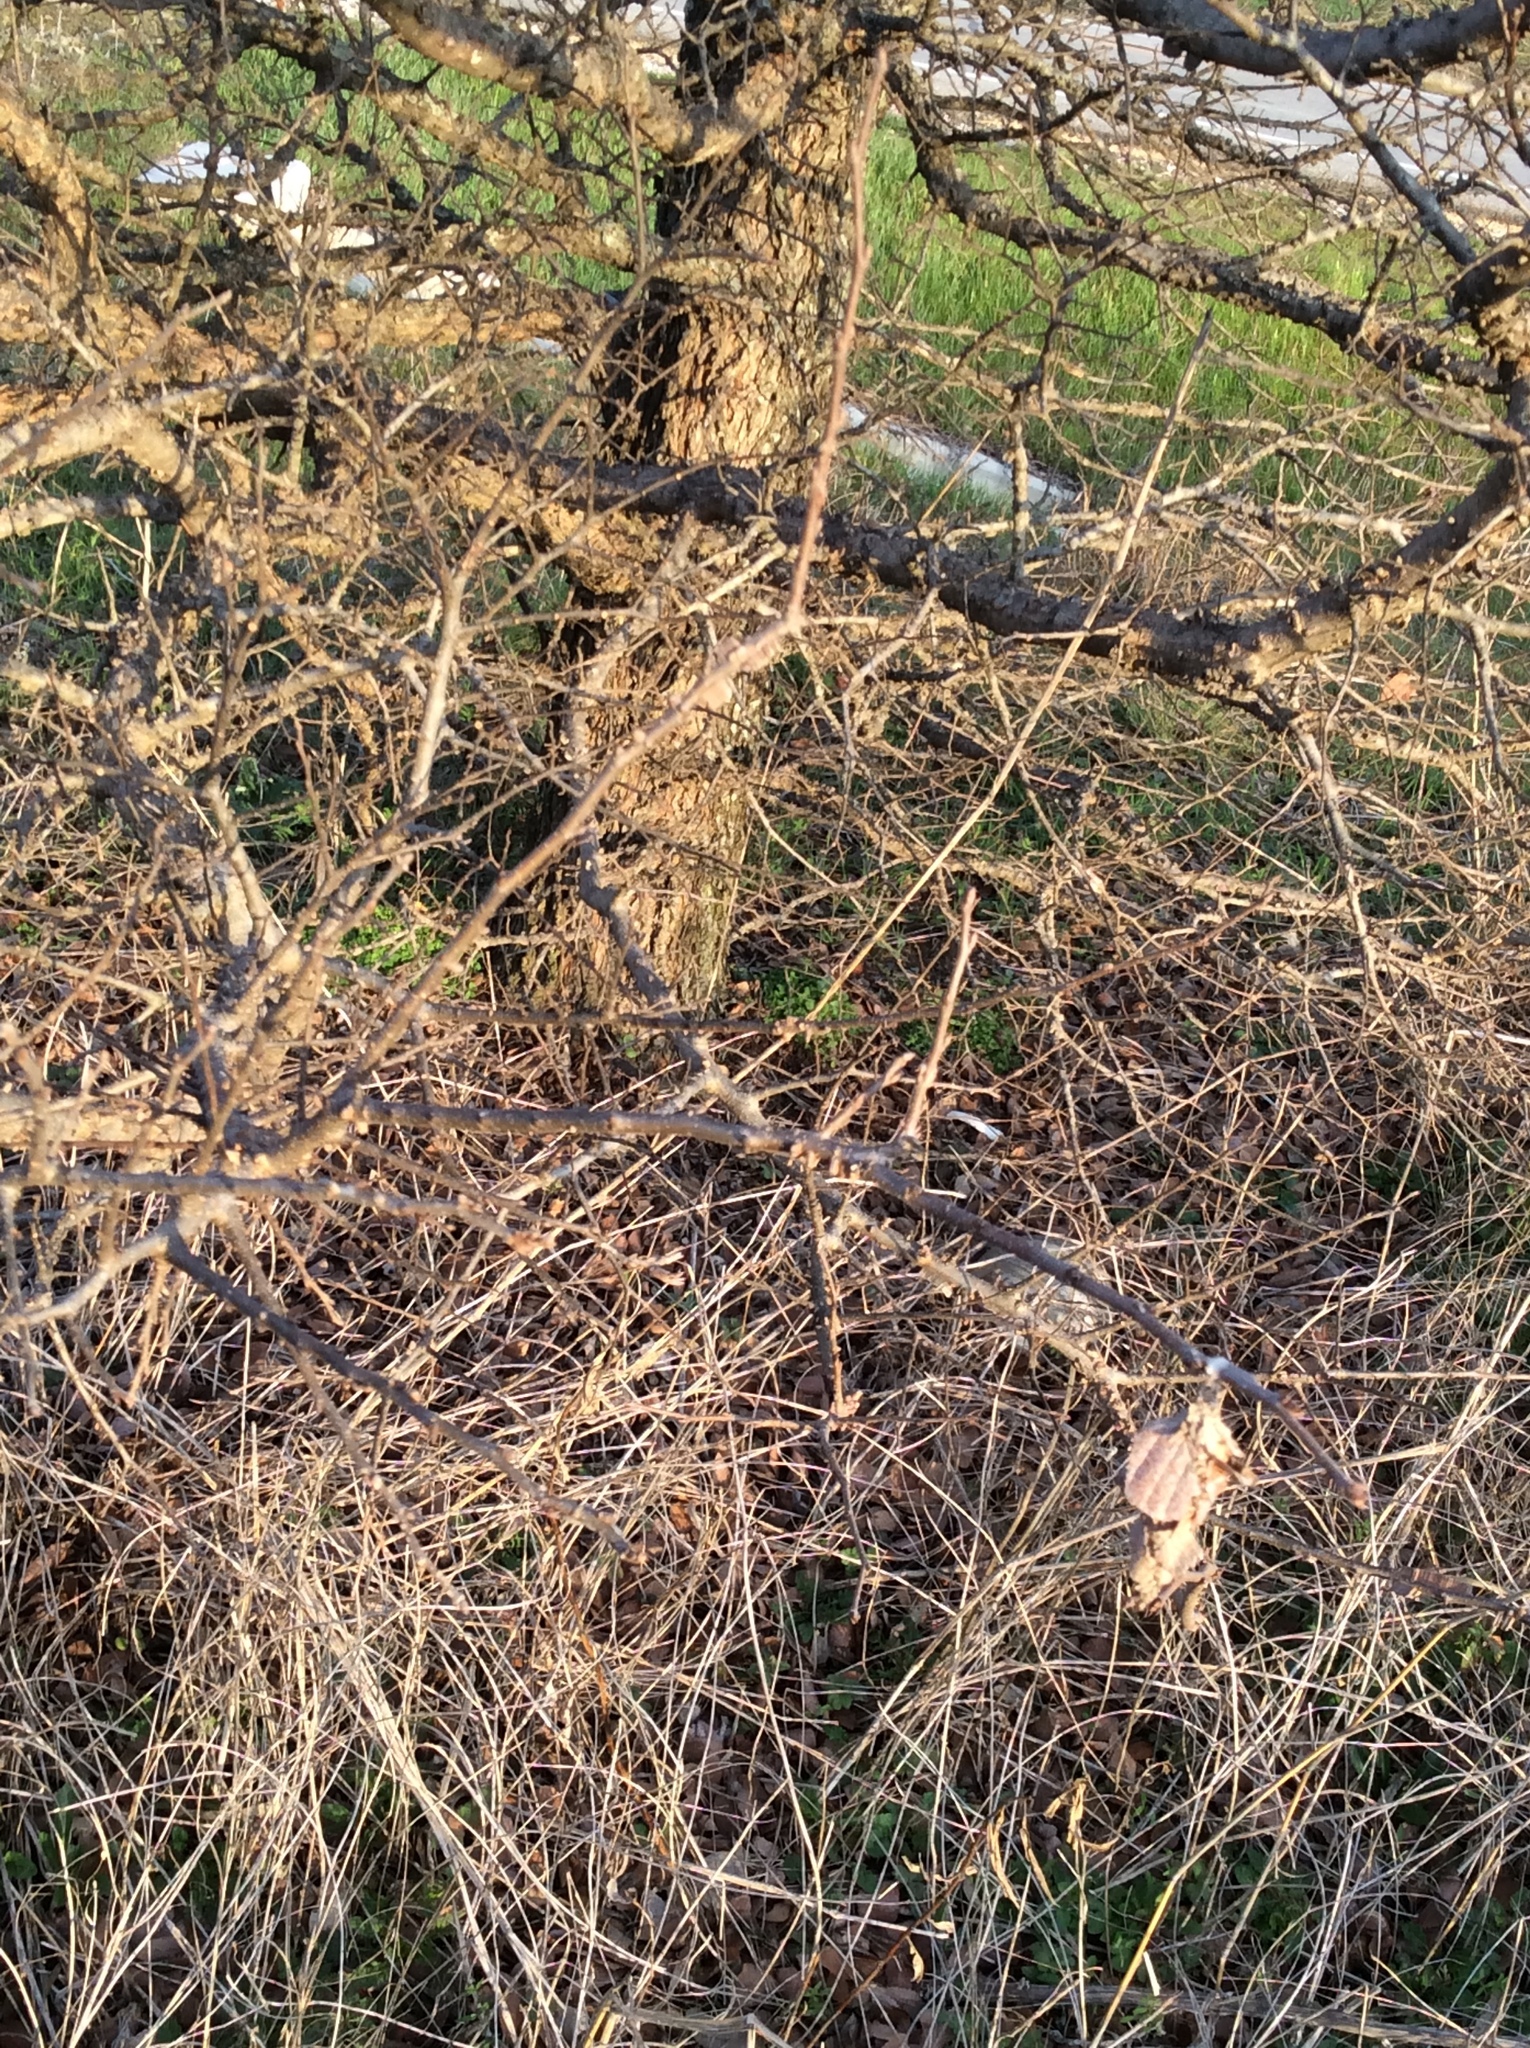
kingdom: Plantae
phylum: Tracheophyta
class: Magnoliopsida
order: Rosales
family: Ulmaceae
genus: Ulmus
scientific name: Ulmus crassifolia
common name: Basket elm
